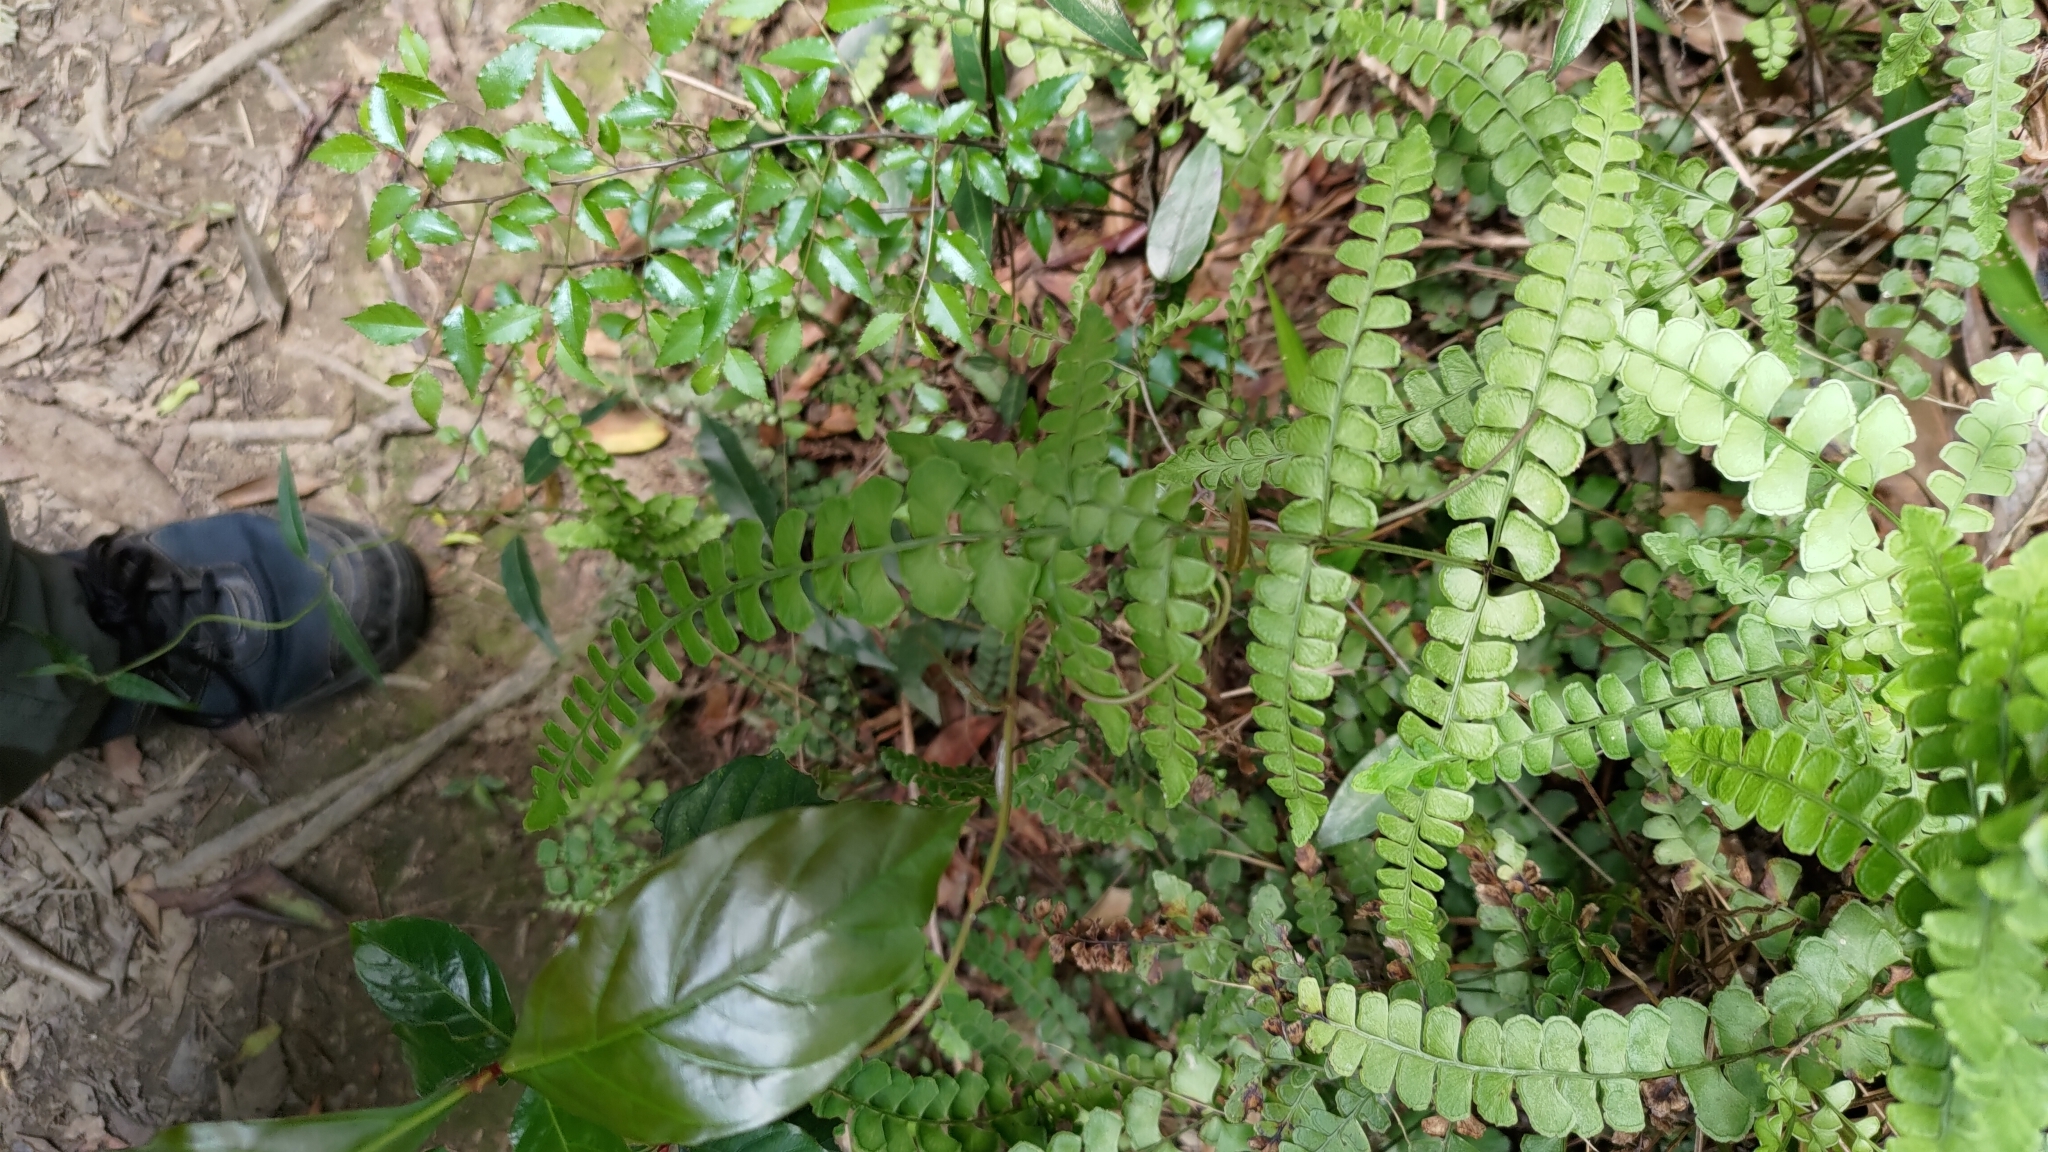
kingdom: Plantae
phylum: Tracheophyta
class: Polypodiopsida
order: Polypodiales
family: Lindsaeaceae
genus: Lindsaea
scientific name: Lindsaea orbiculata
